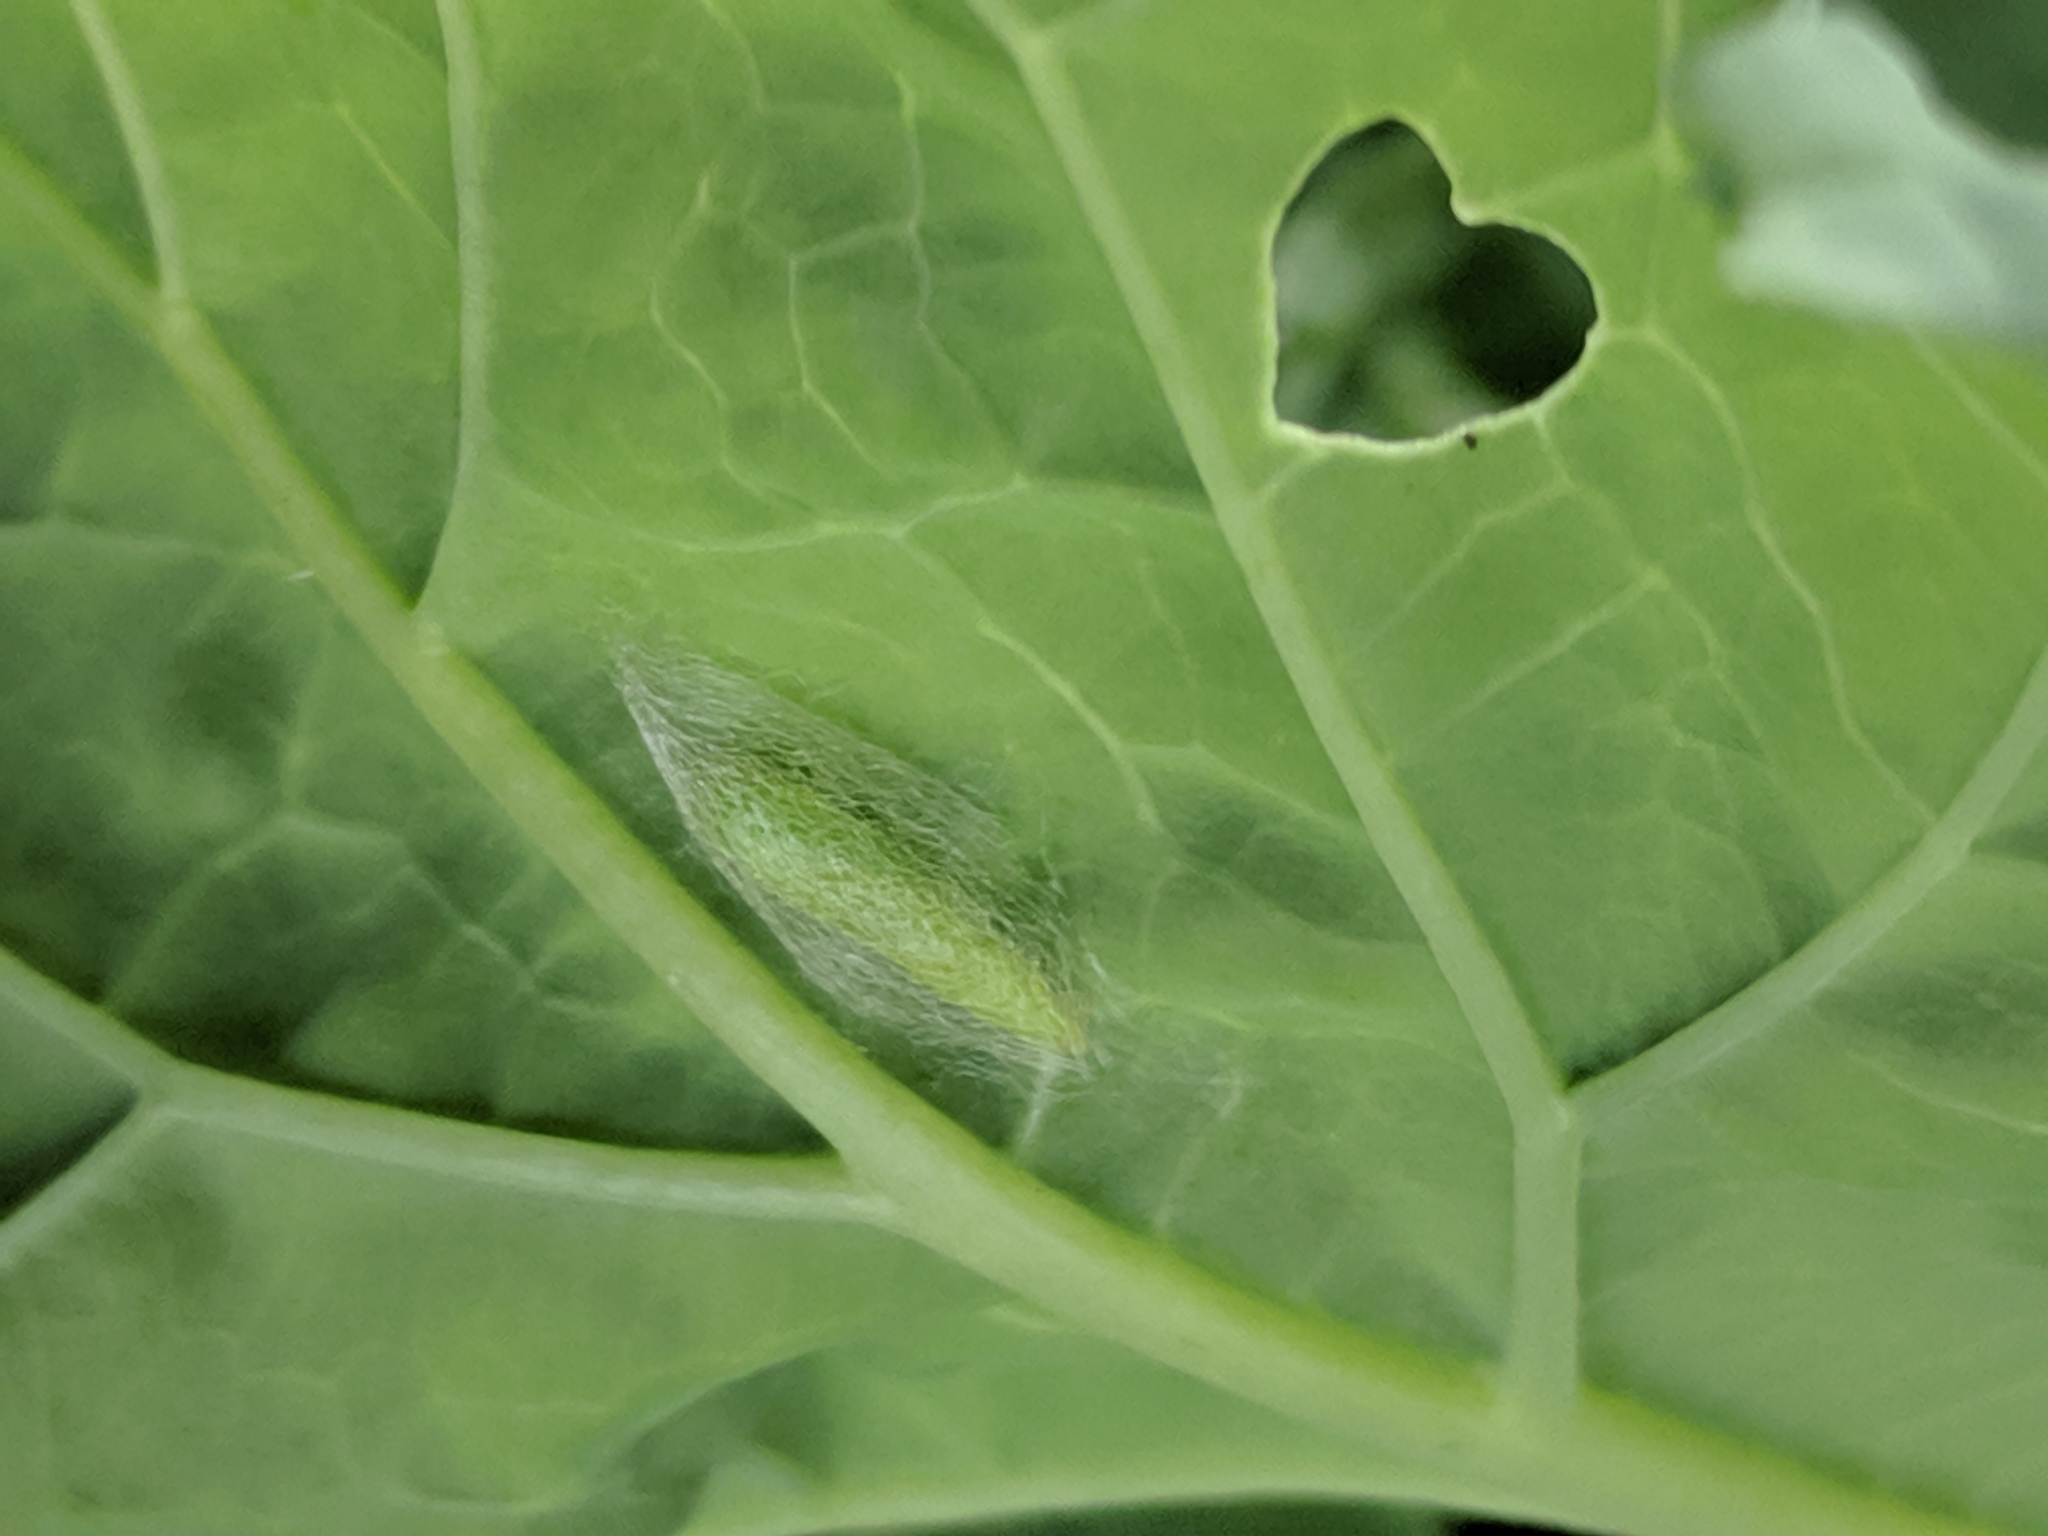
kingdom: Animalia
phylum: Arthropoda
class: Insecta
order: Lepidoptera
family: Plutellidae
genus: Plutella
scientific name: Plutella xylostella
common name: Diamond-back moth
